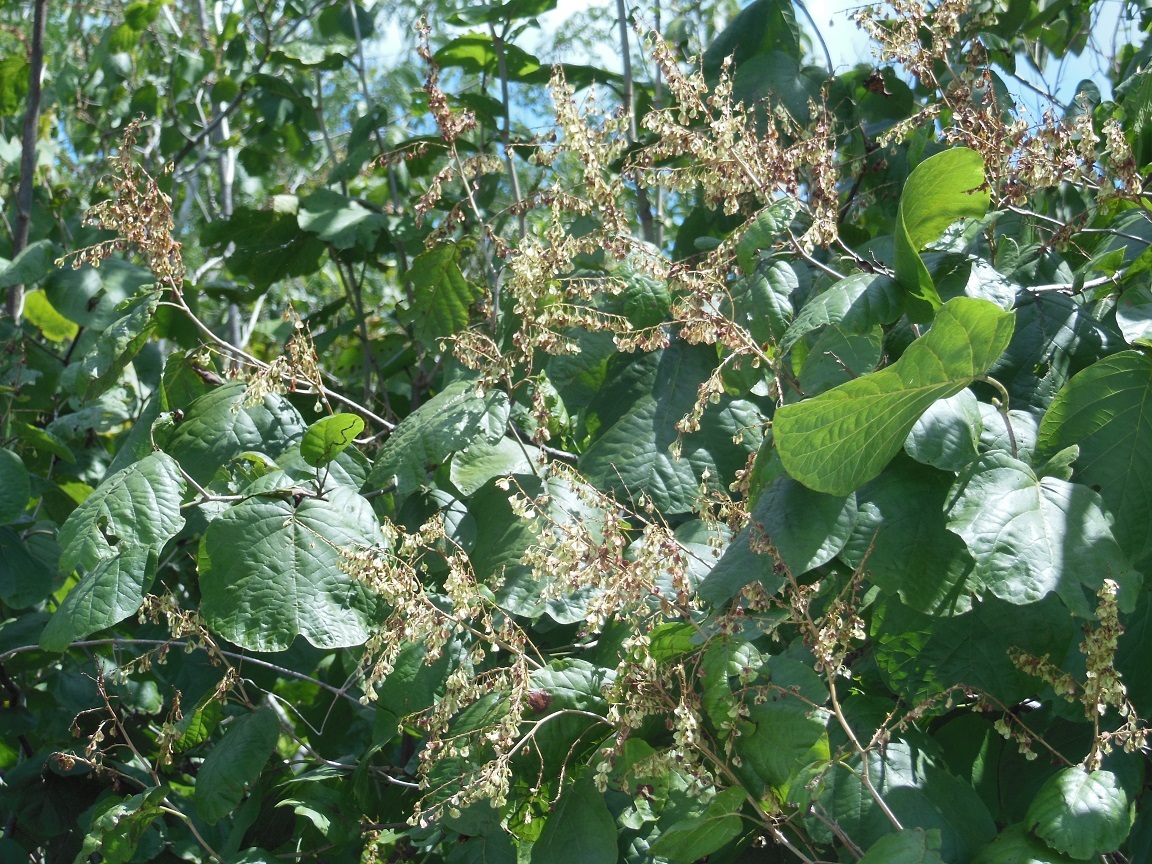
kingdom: Plantae
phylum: Tracheophyta
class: Magnoliopsida
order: Caryophyllales
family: Polygonaceae
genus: Neomillspaughia
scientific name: Neomillspaughia emarginata
